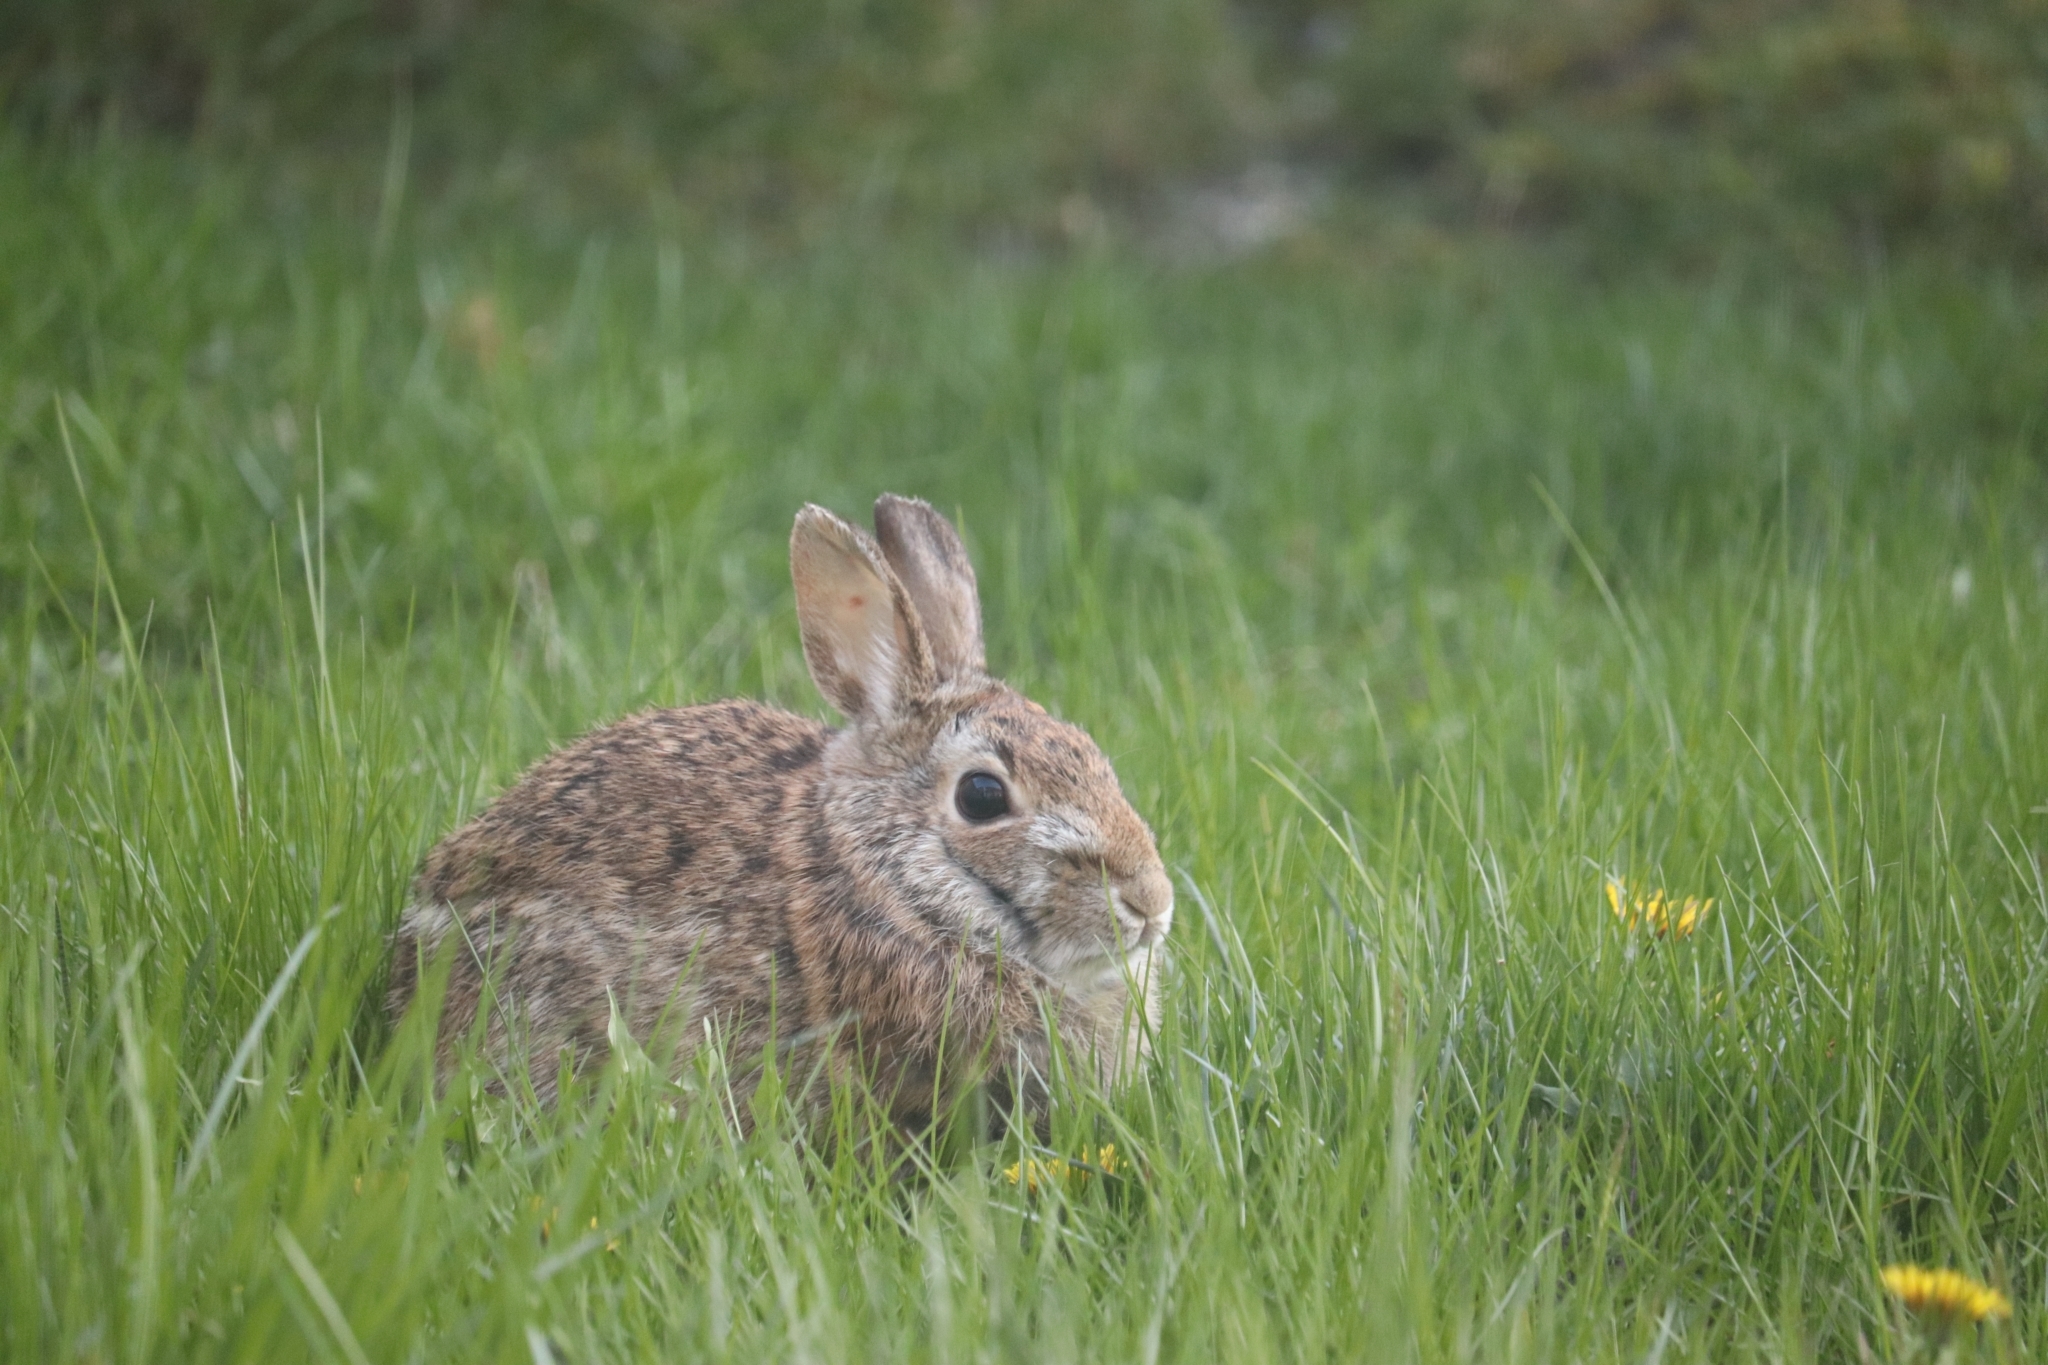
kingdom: Animalia
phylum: Chordata
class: Mammalia
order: Lagomorpha
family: Leporidae
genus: Sylvilagus
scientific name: Sylvilagus floridanus
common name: Eastern cottontail
